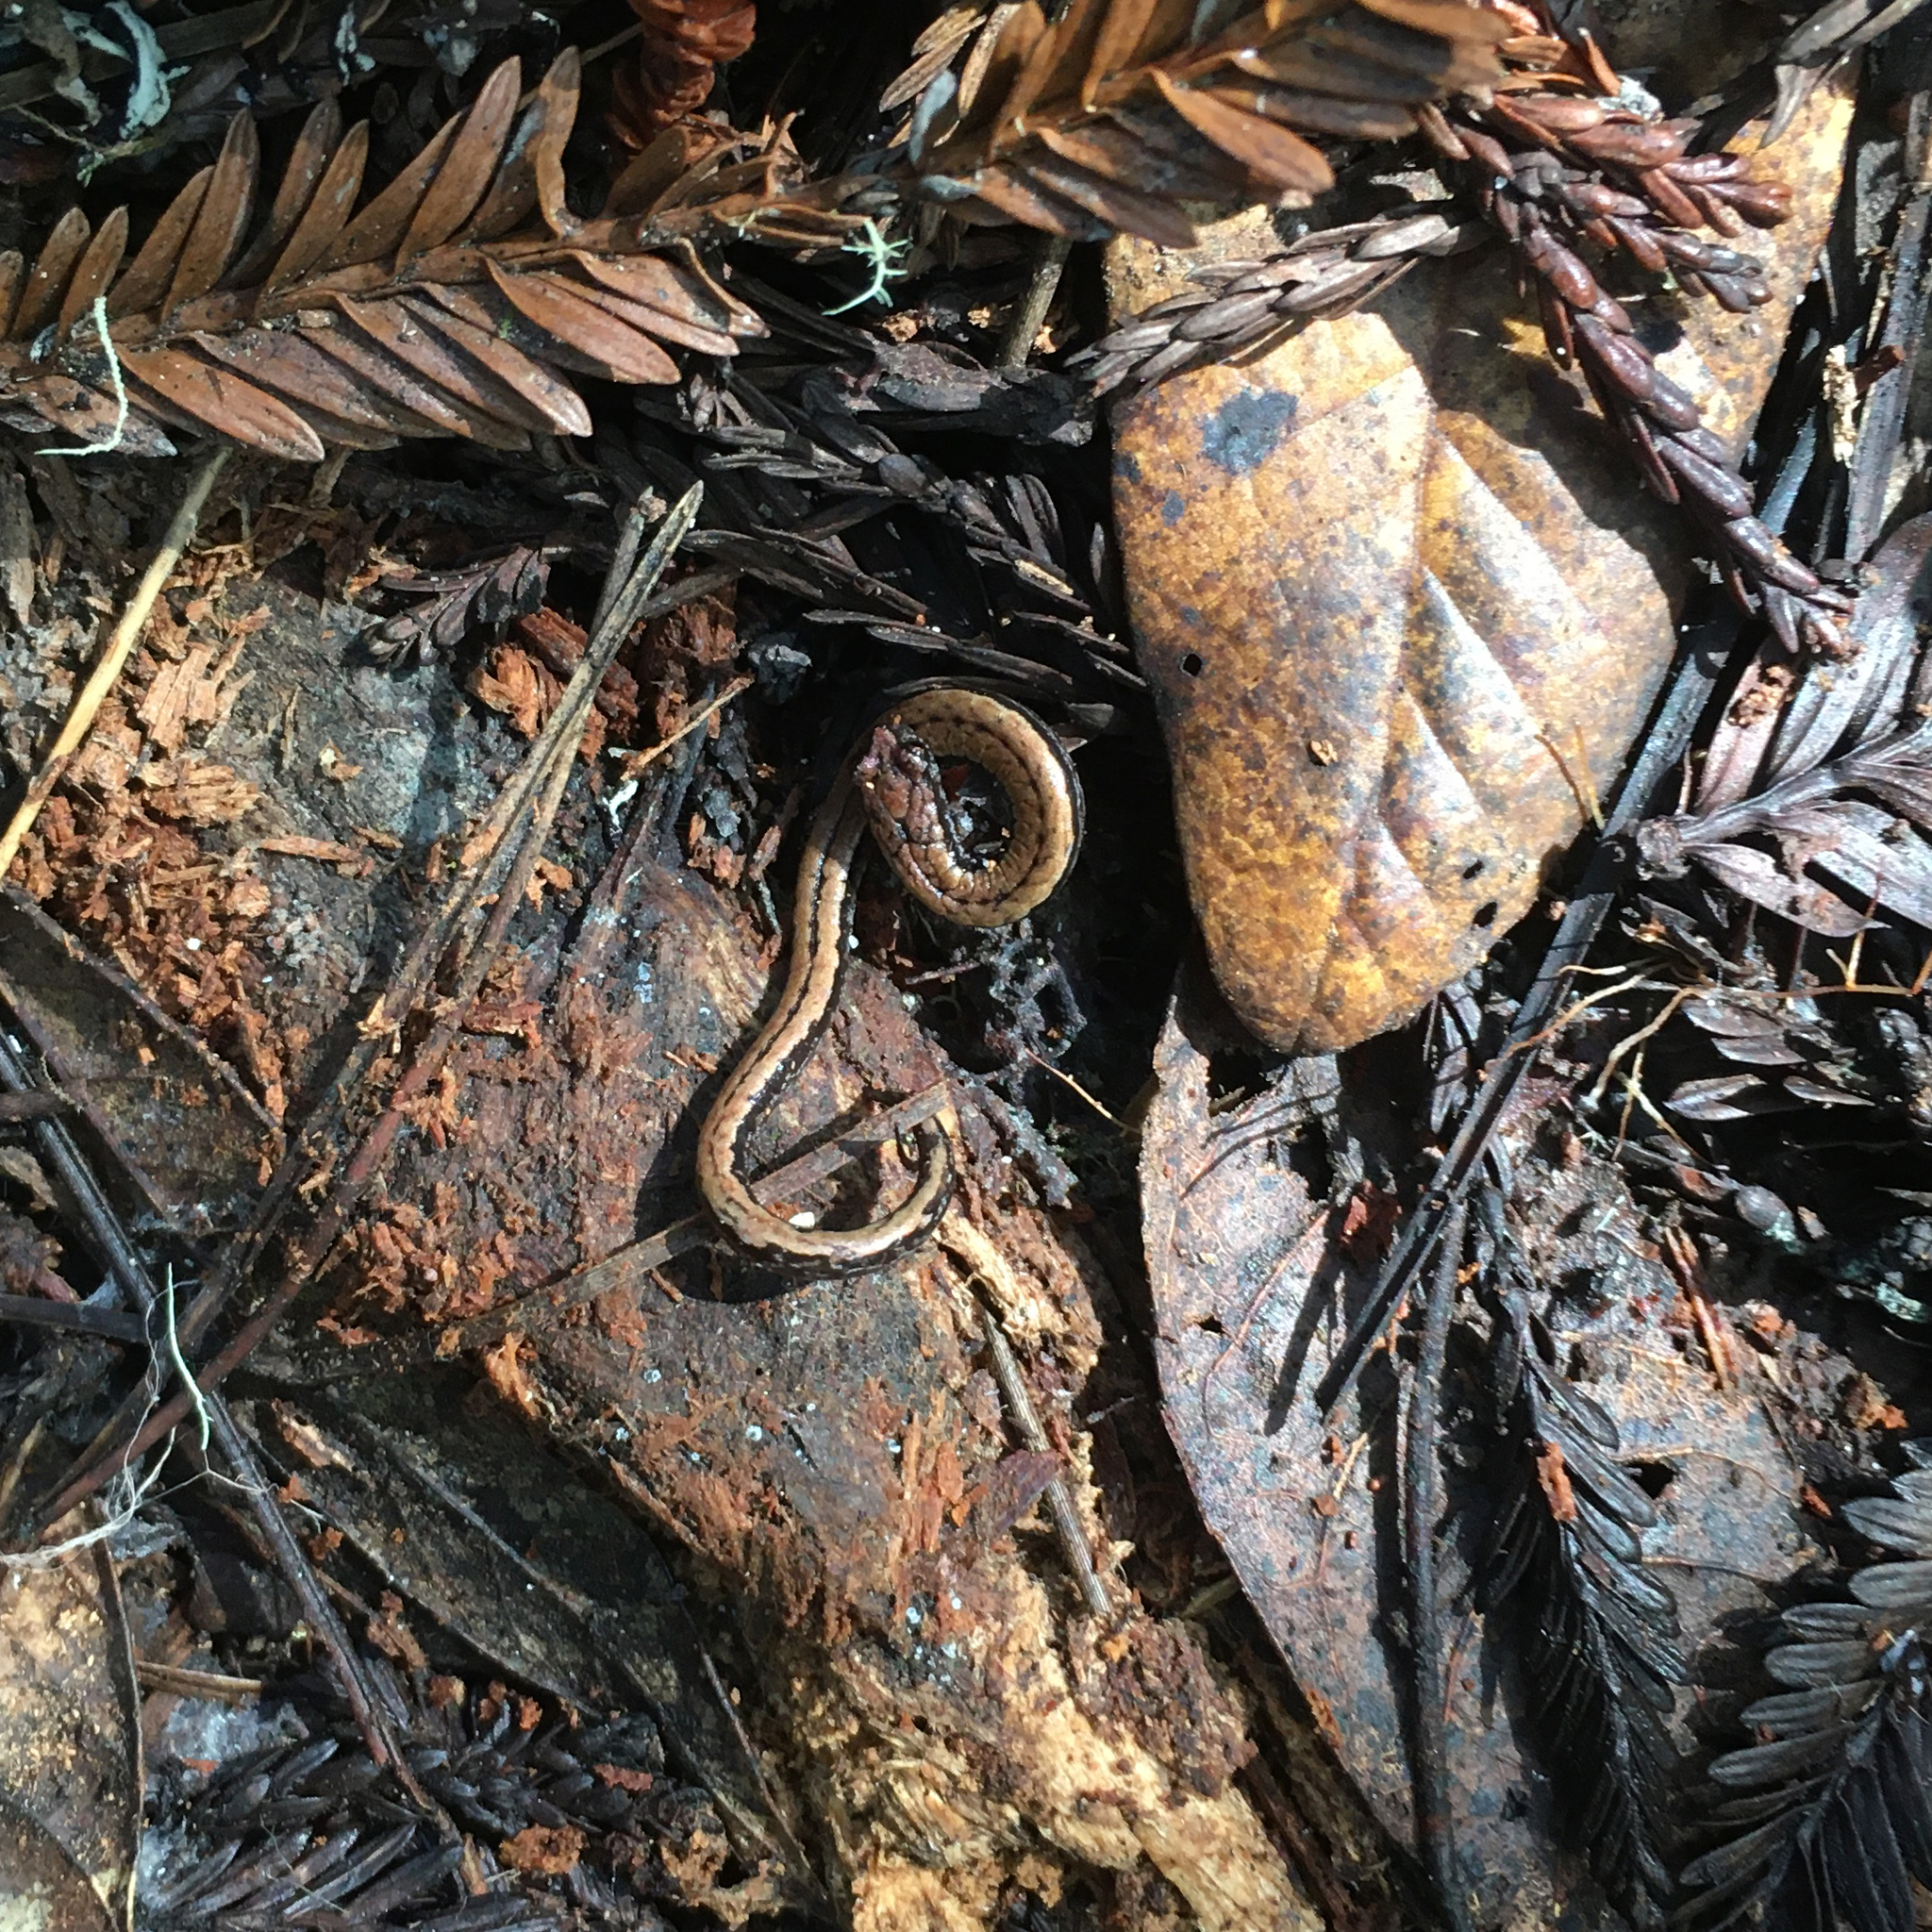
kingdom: Animalia
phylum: Chordata
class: Amphibia
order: Caudata
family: Plethodontidae
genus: Batrachoseps
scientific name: Batrachoseps attenuatus
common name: California slender salamander
